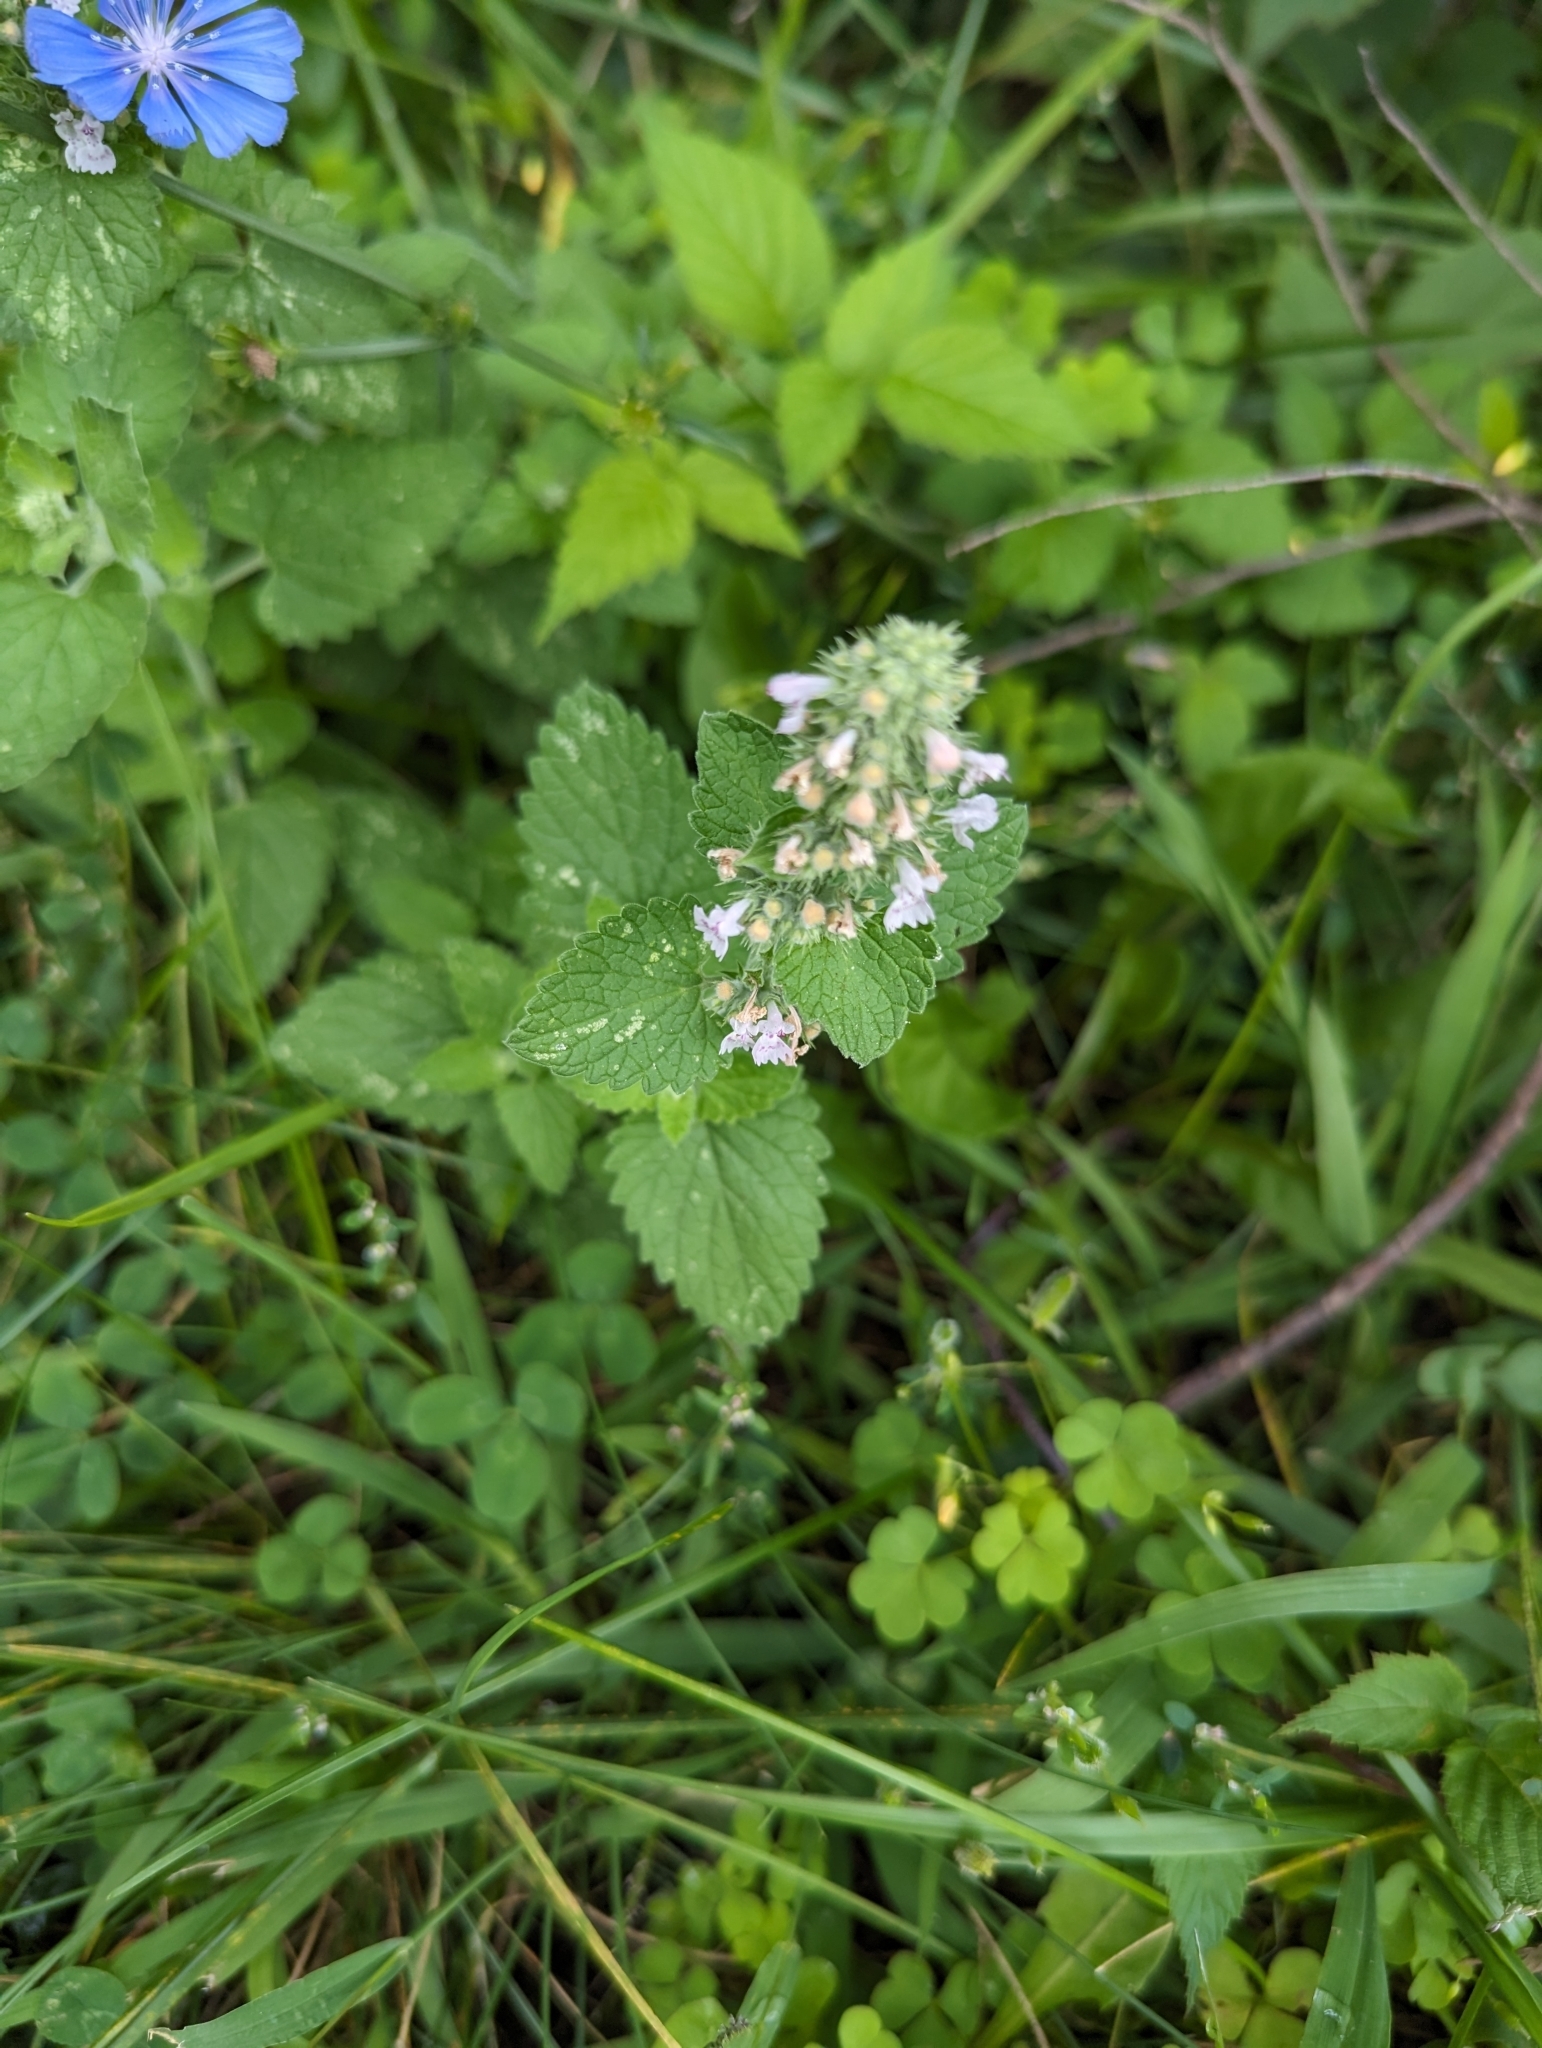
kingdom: Plantae
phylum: Tracheophyta
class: Magnoliopsida
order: Lamiales
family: Lamiaceae
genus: Nepeta
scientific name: Nepeta cataria
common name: Catnip
